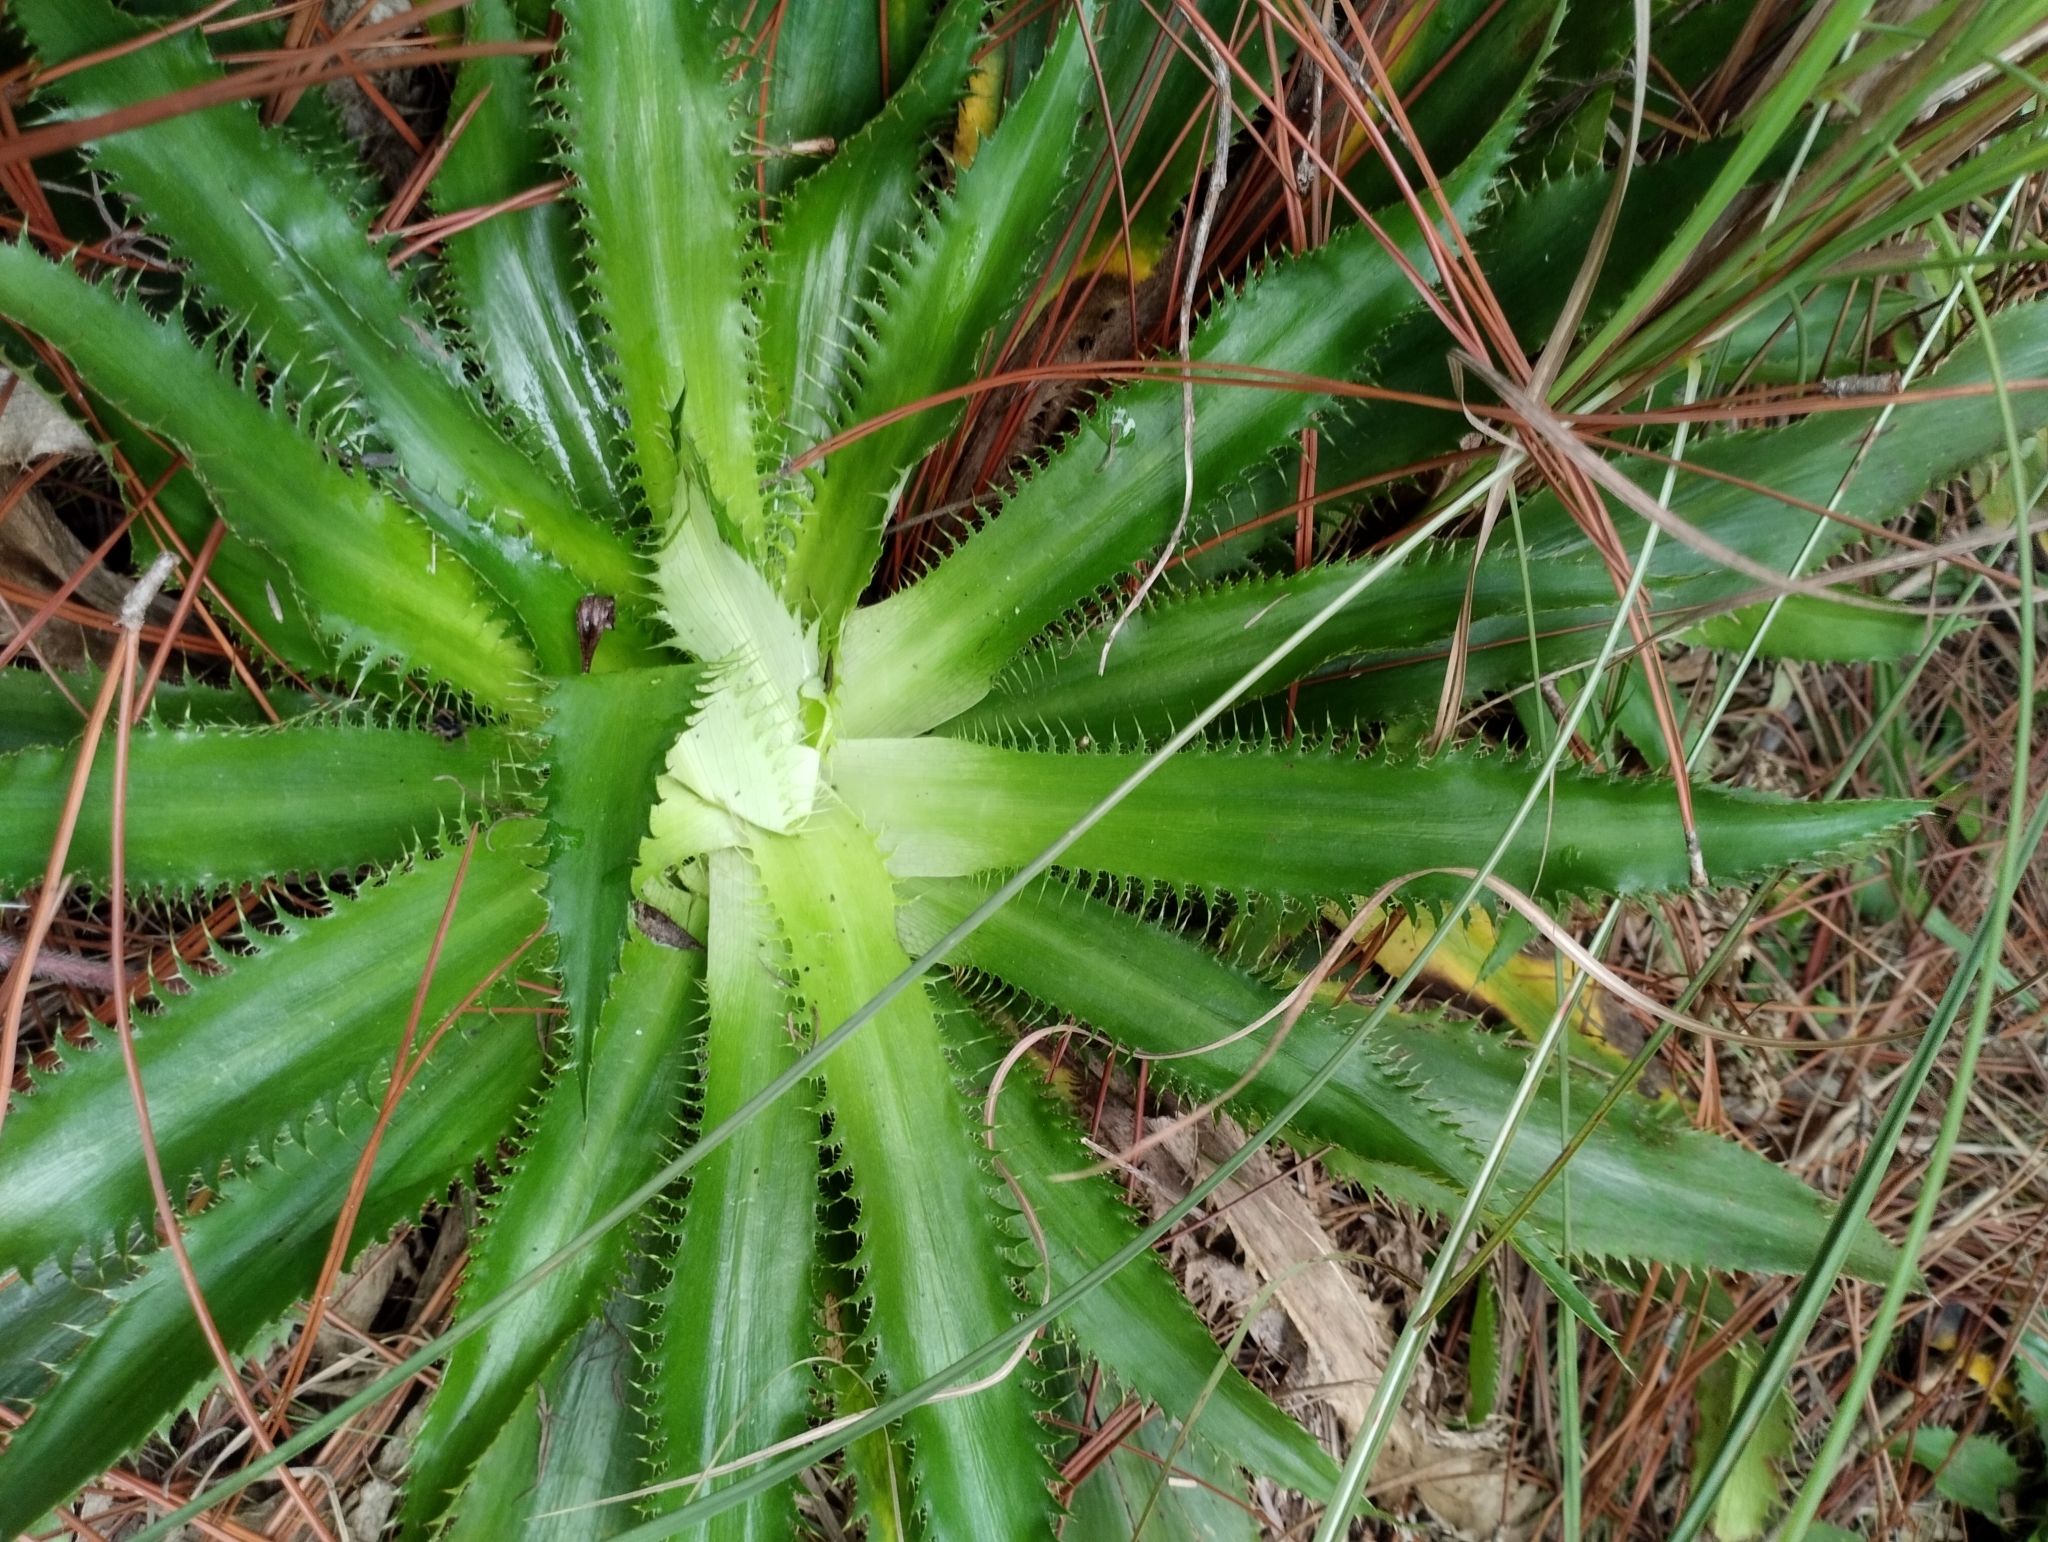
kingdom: Plantae
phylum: Tracheophyta
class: Magnoliopsida
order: Apiales
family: Apiaceae
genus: Eryngium
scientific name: Eryngium serra
